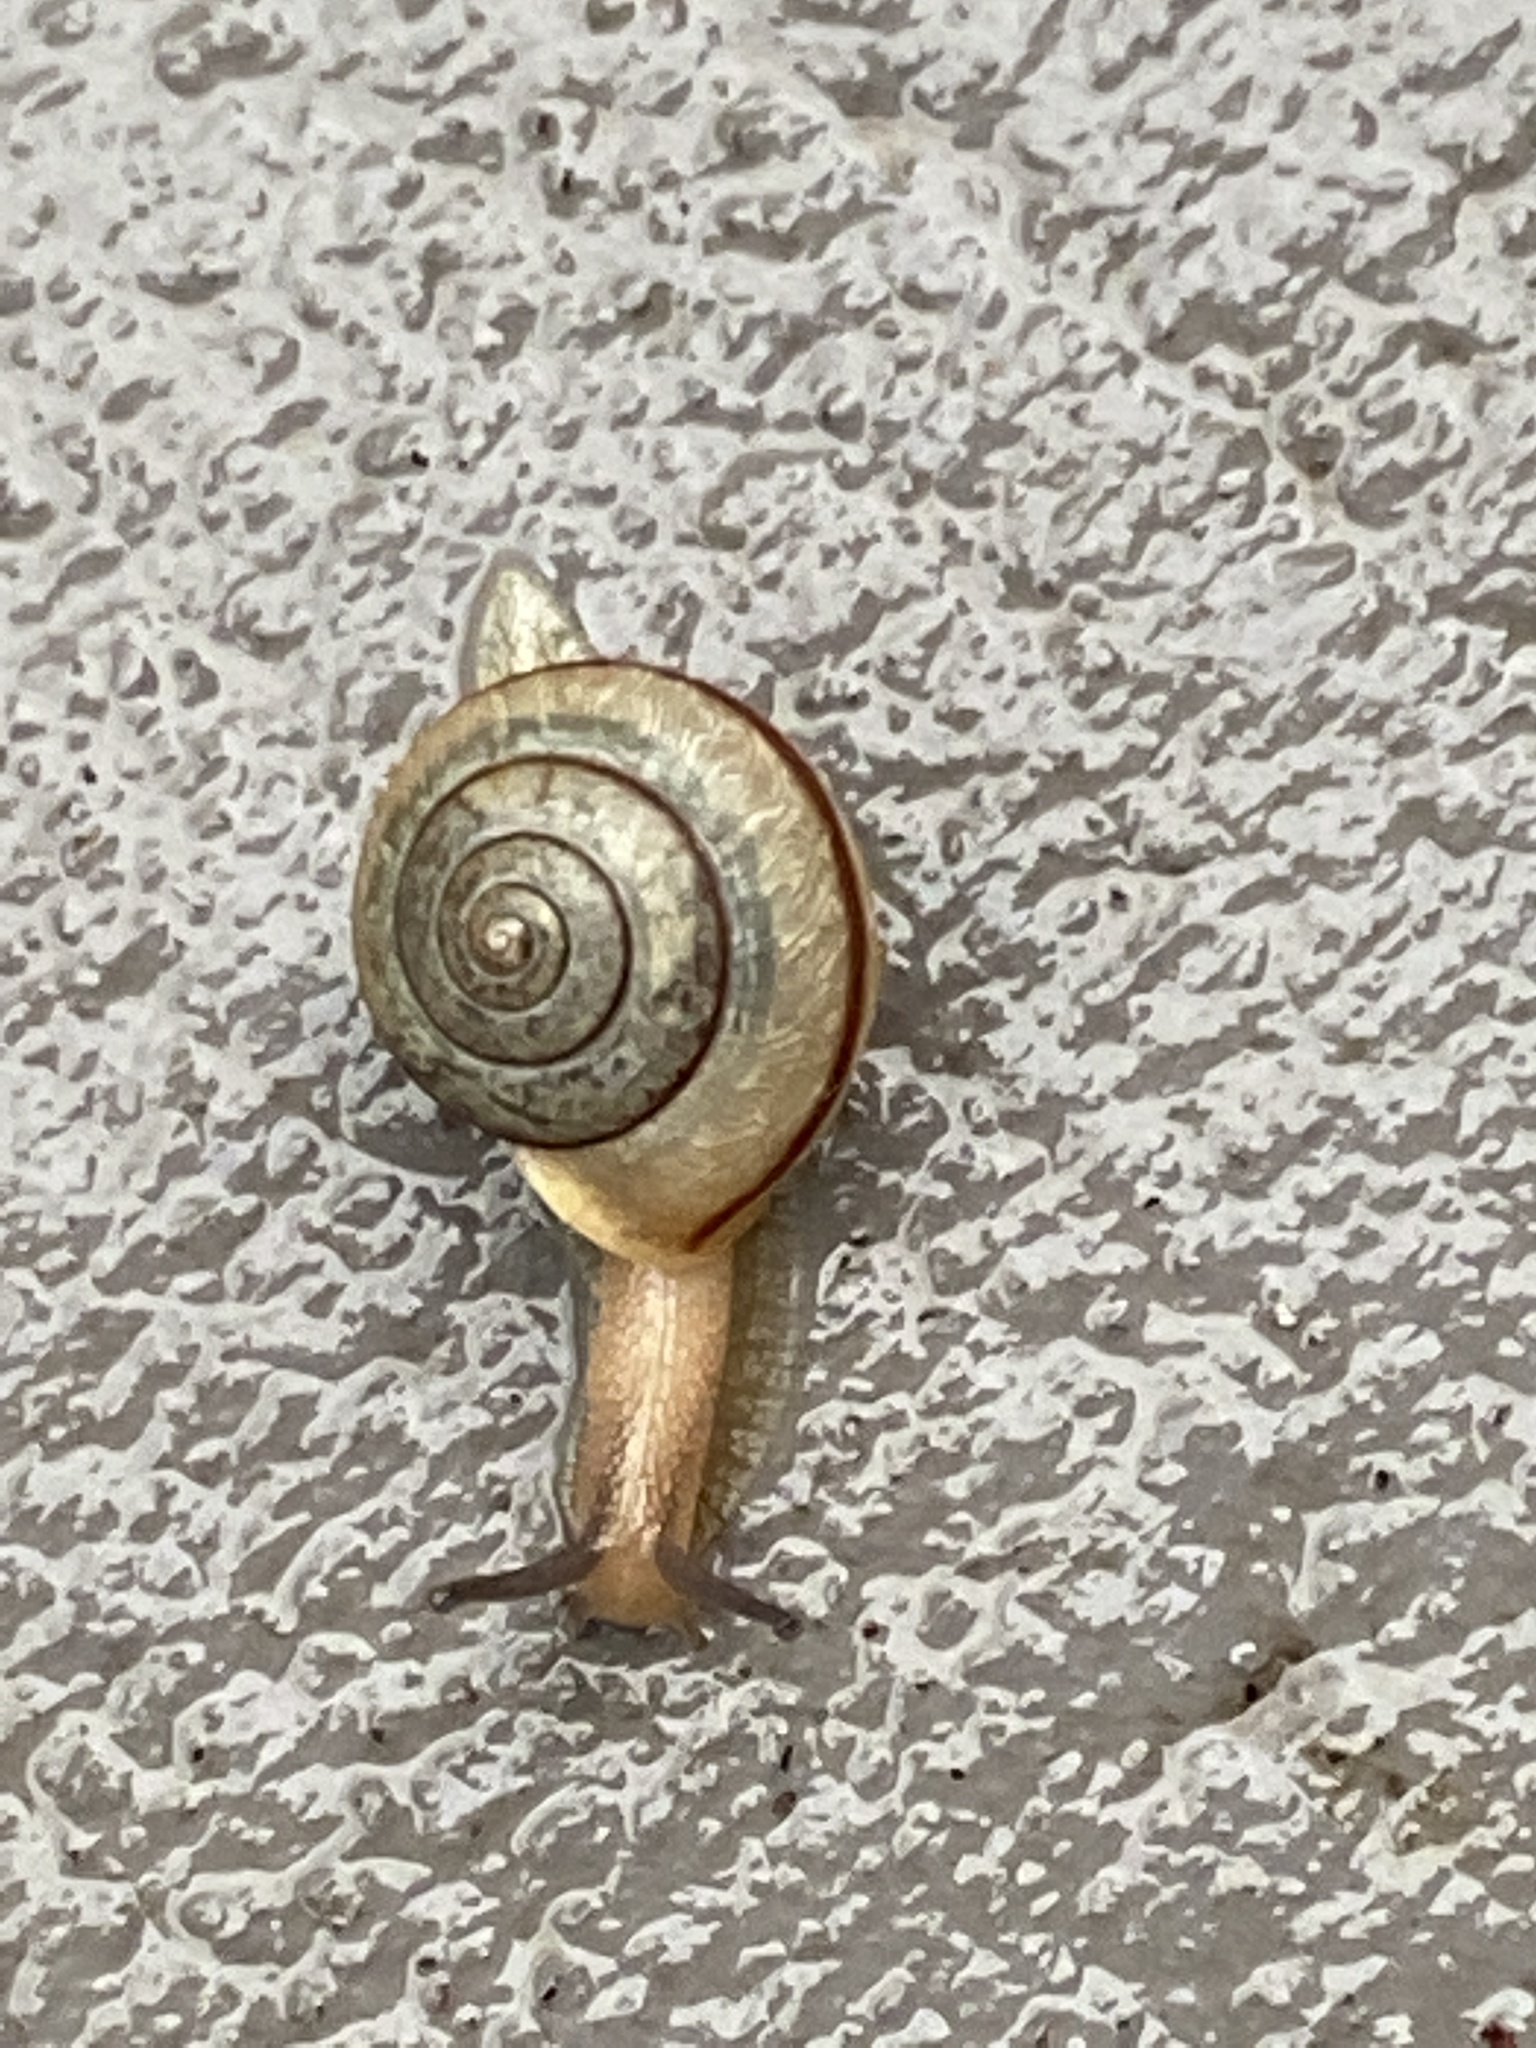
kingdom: Animalia
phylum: Mollusca
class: Gastropoda
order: Stylommatophora
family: Camaenidae
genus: Bradybaena
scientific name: Bradybaena similaris
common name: Asian trampsnail
